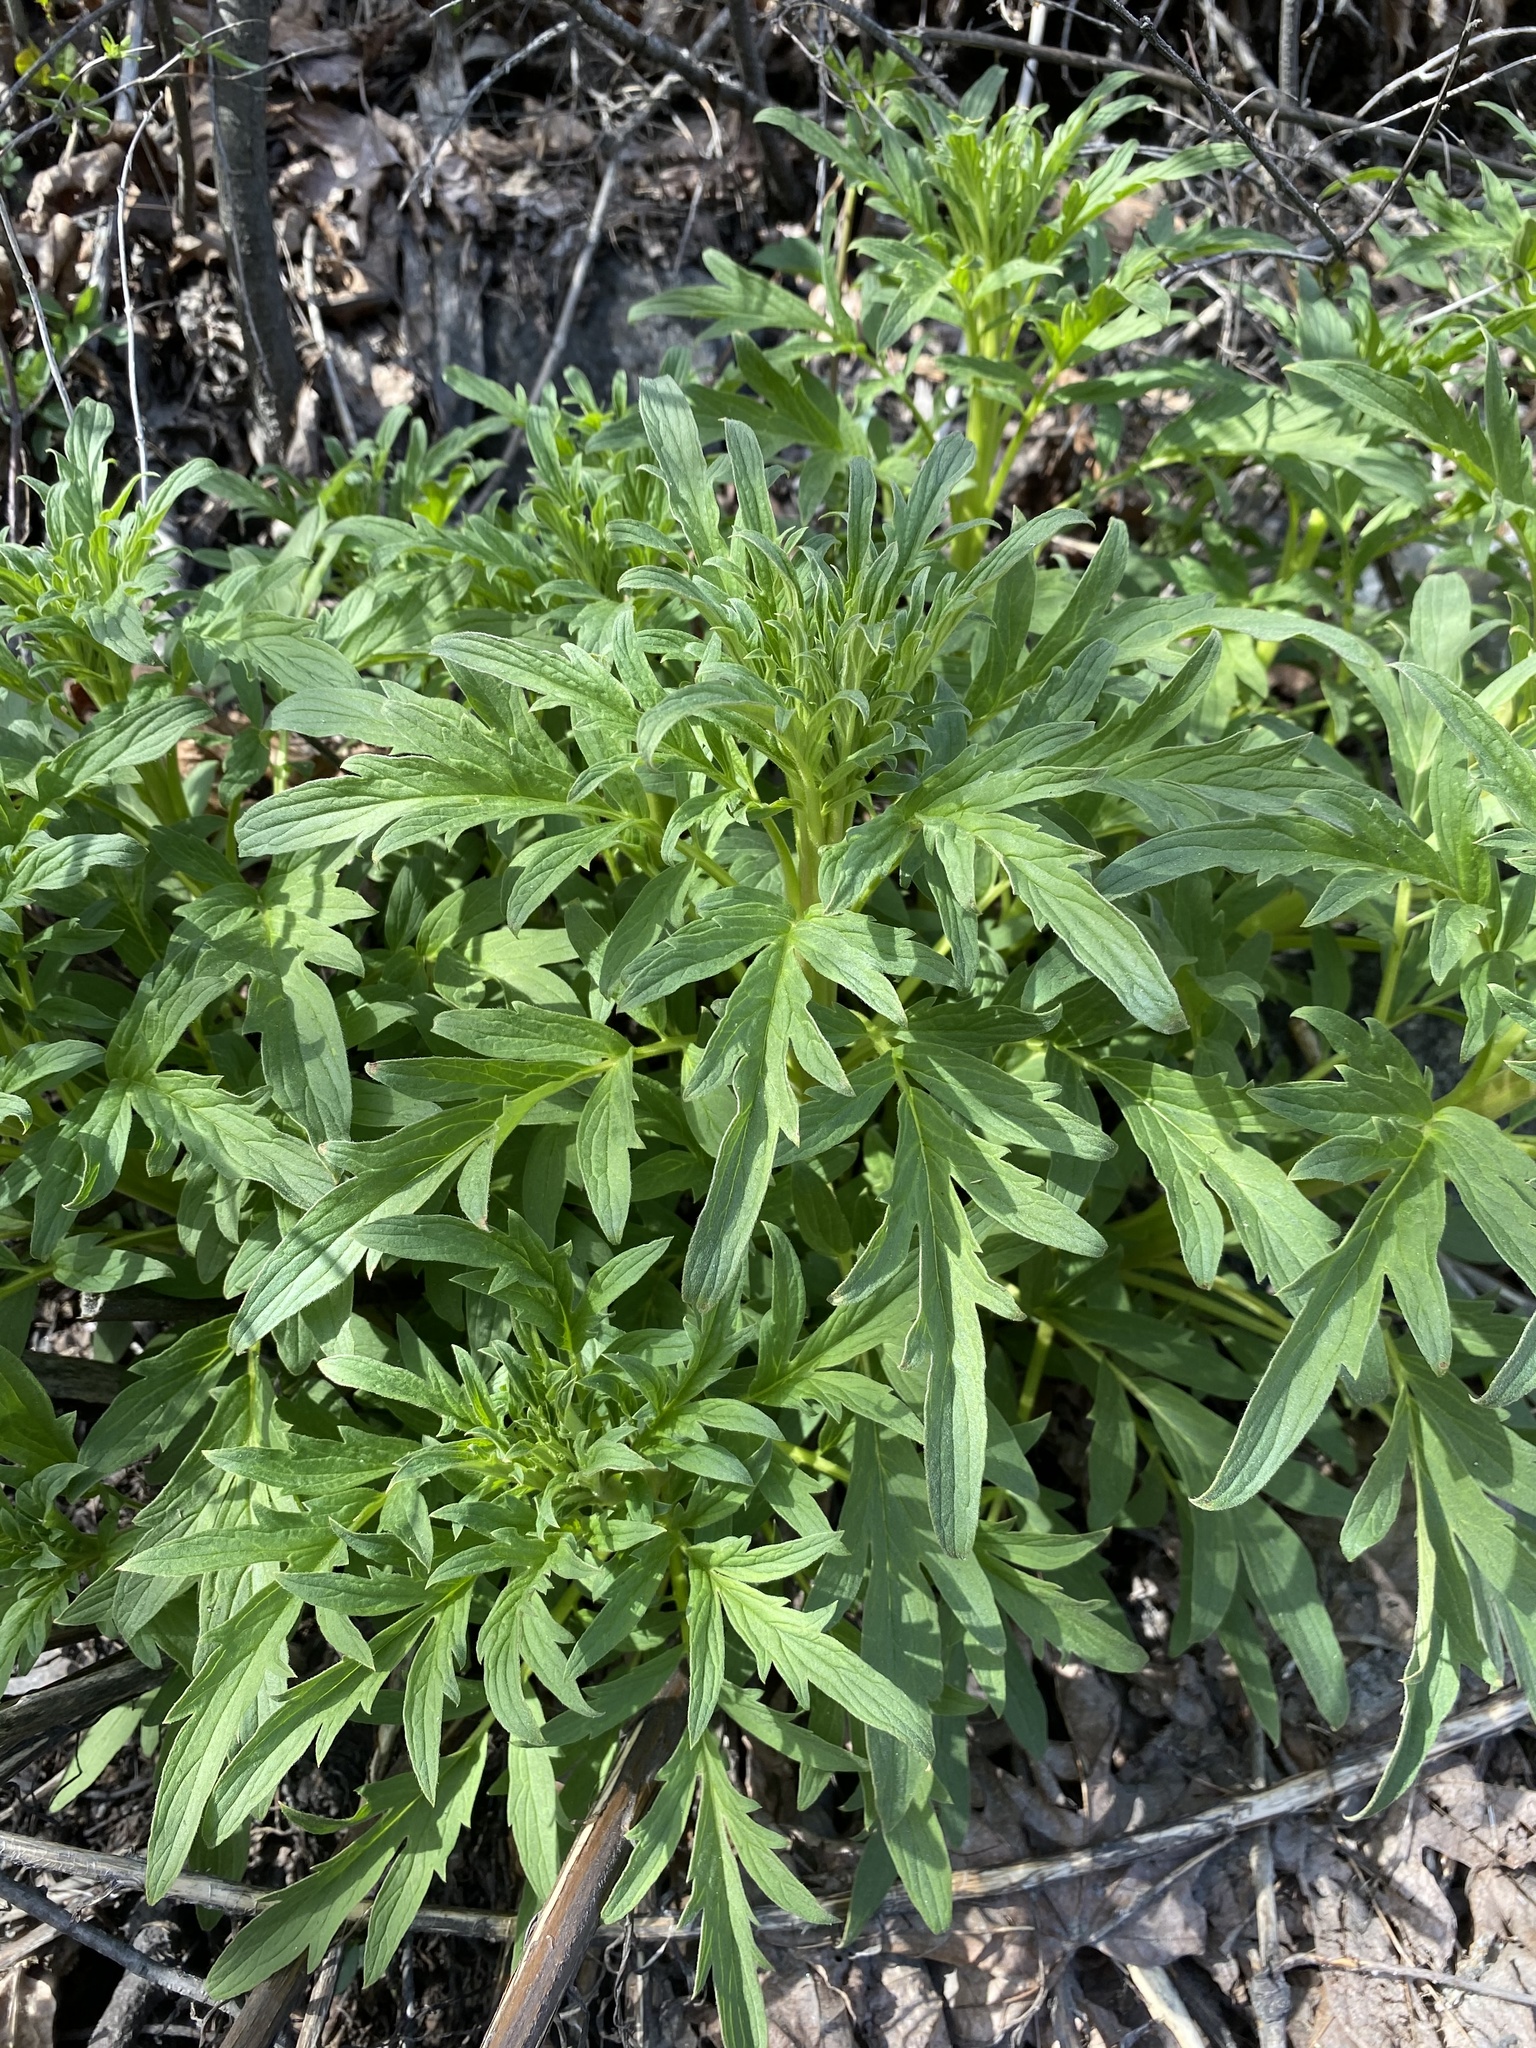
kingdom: Plantae
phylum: Tracheophyta
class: Magnoliopsida
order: Boraginales
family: Hydrophyllaceae
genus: Phacelia
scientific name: Phacelia procera
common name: Tall phacelia
